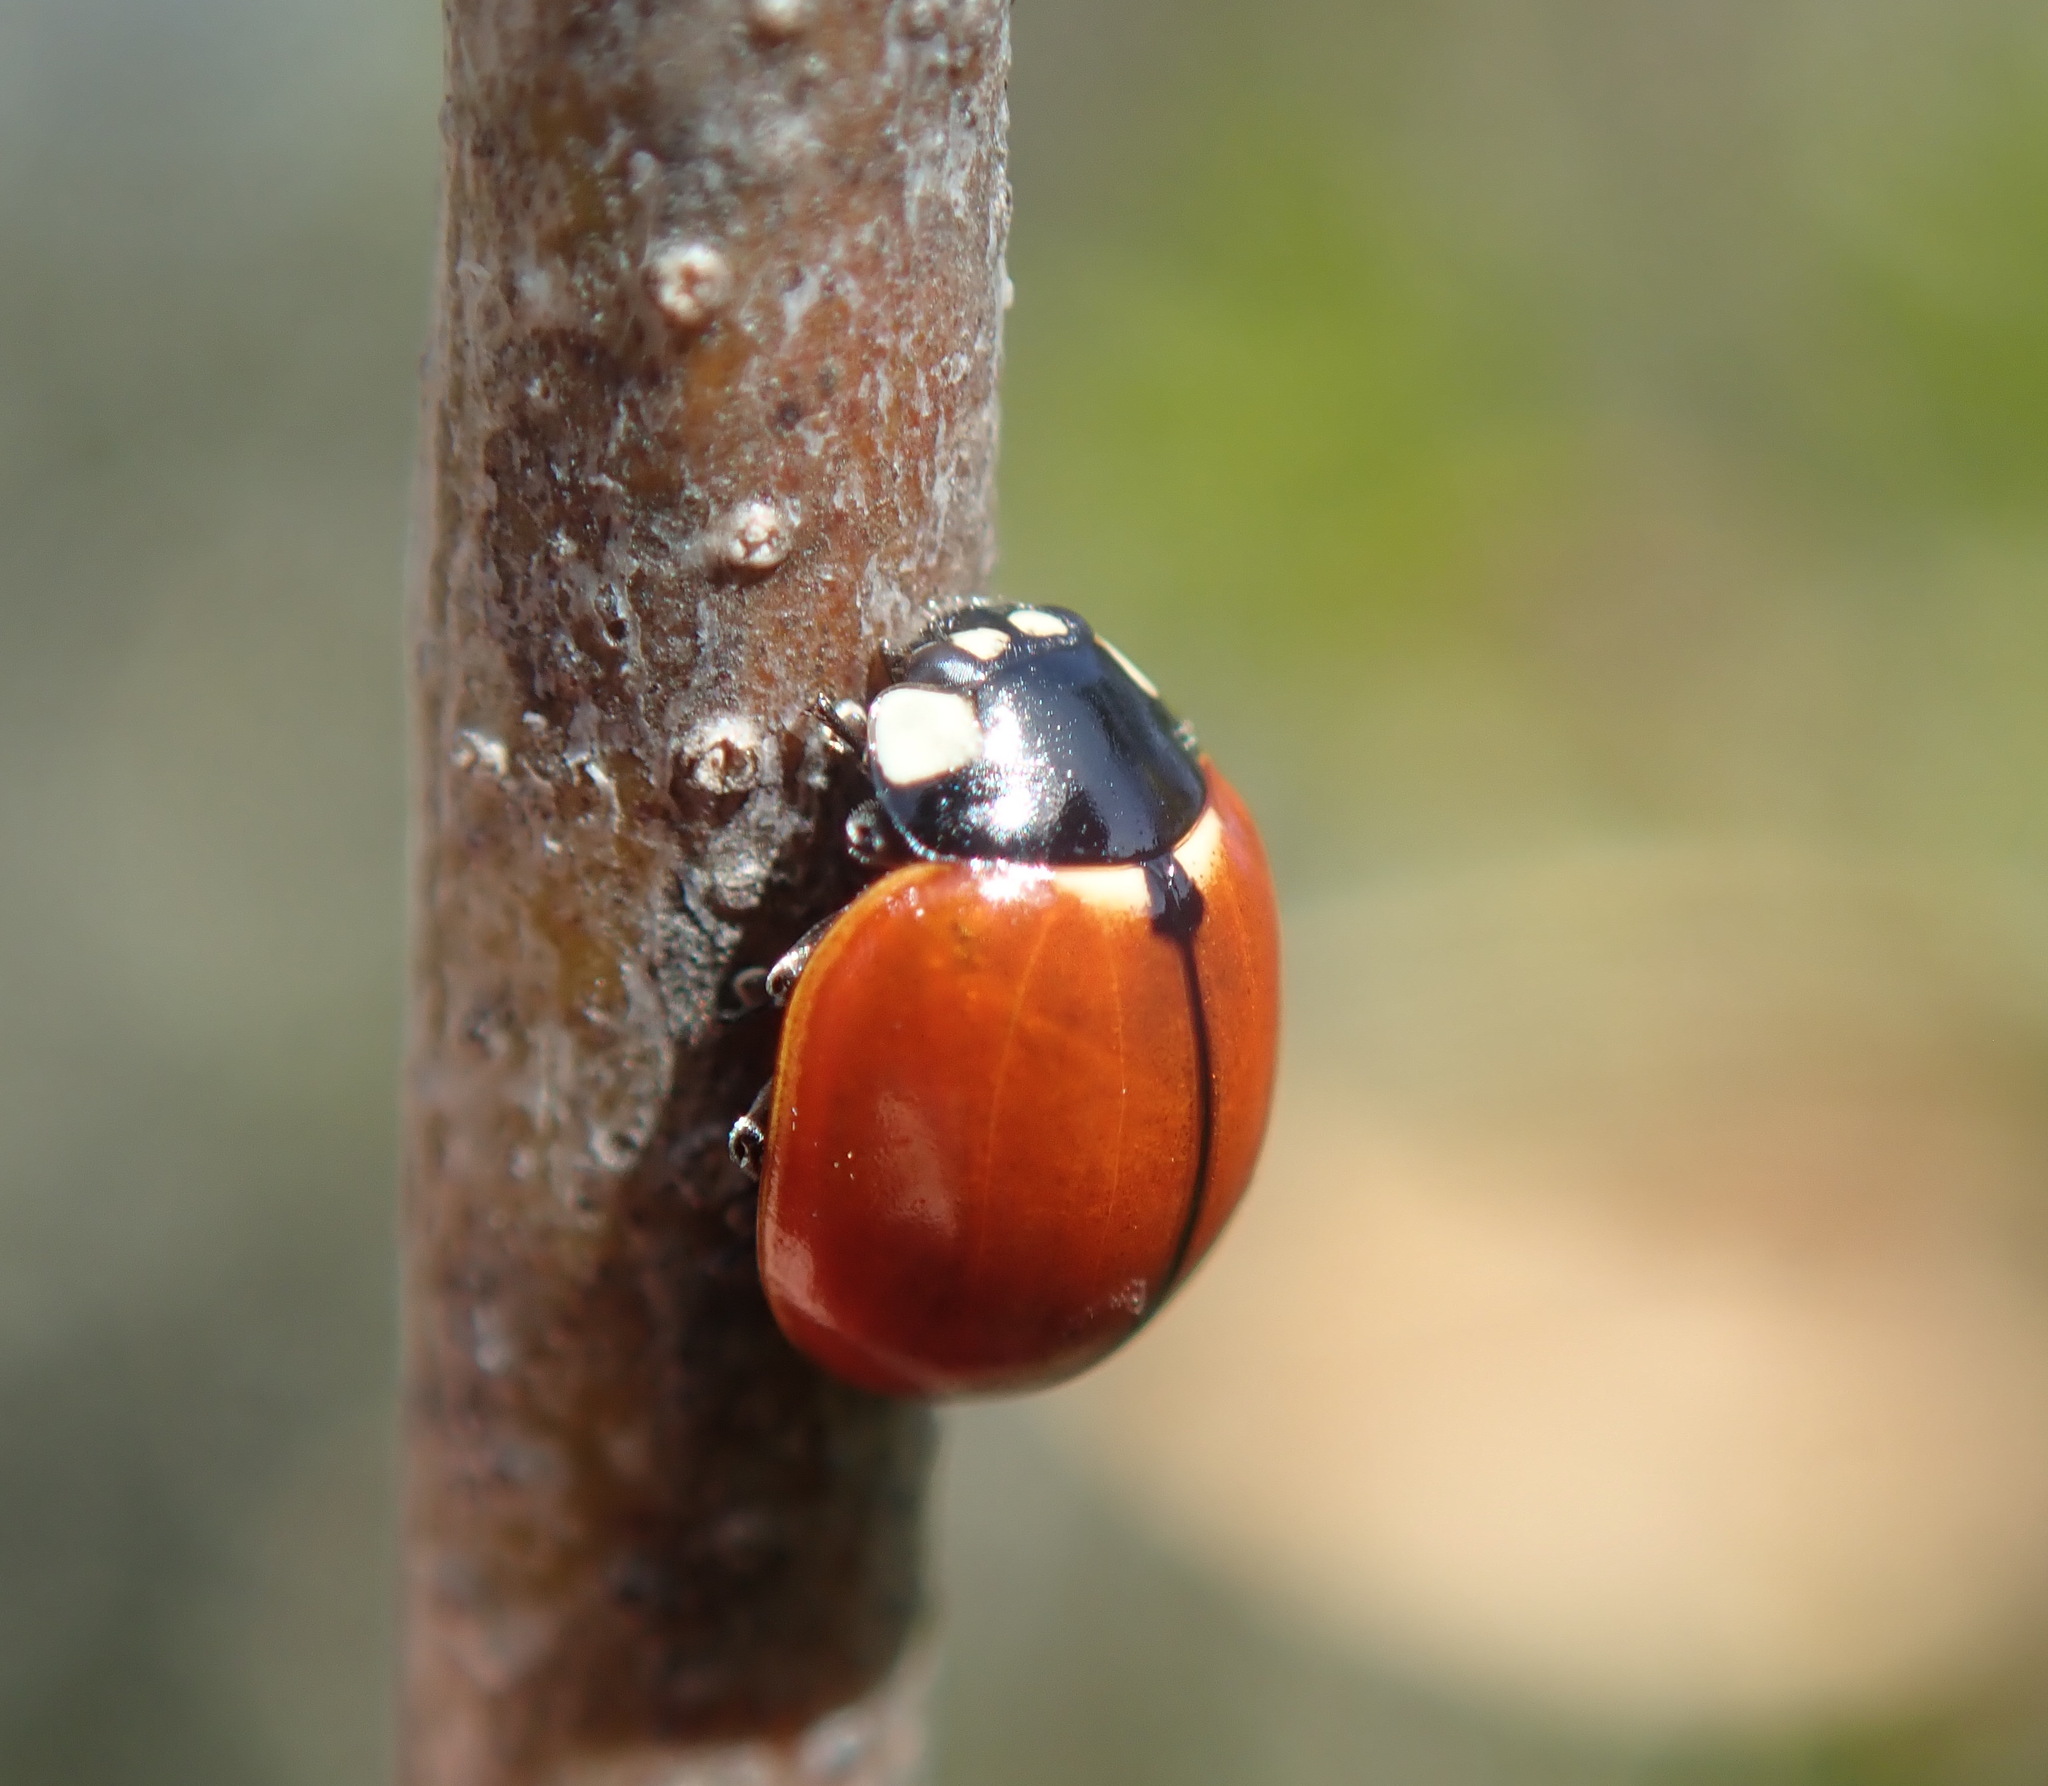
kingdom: Animalia
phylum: Arthropoda
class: Insecta
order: Coleoptera
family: Coccinellidae
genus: Coccinella
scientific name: Coccinella californica
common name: Lady beetle
